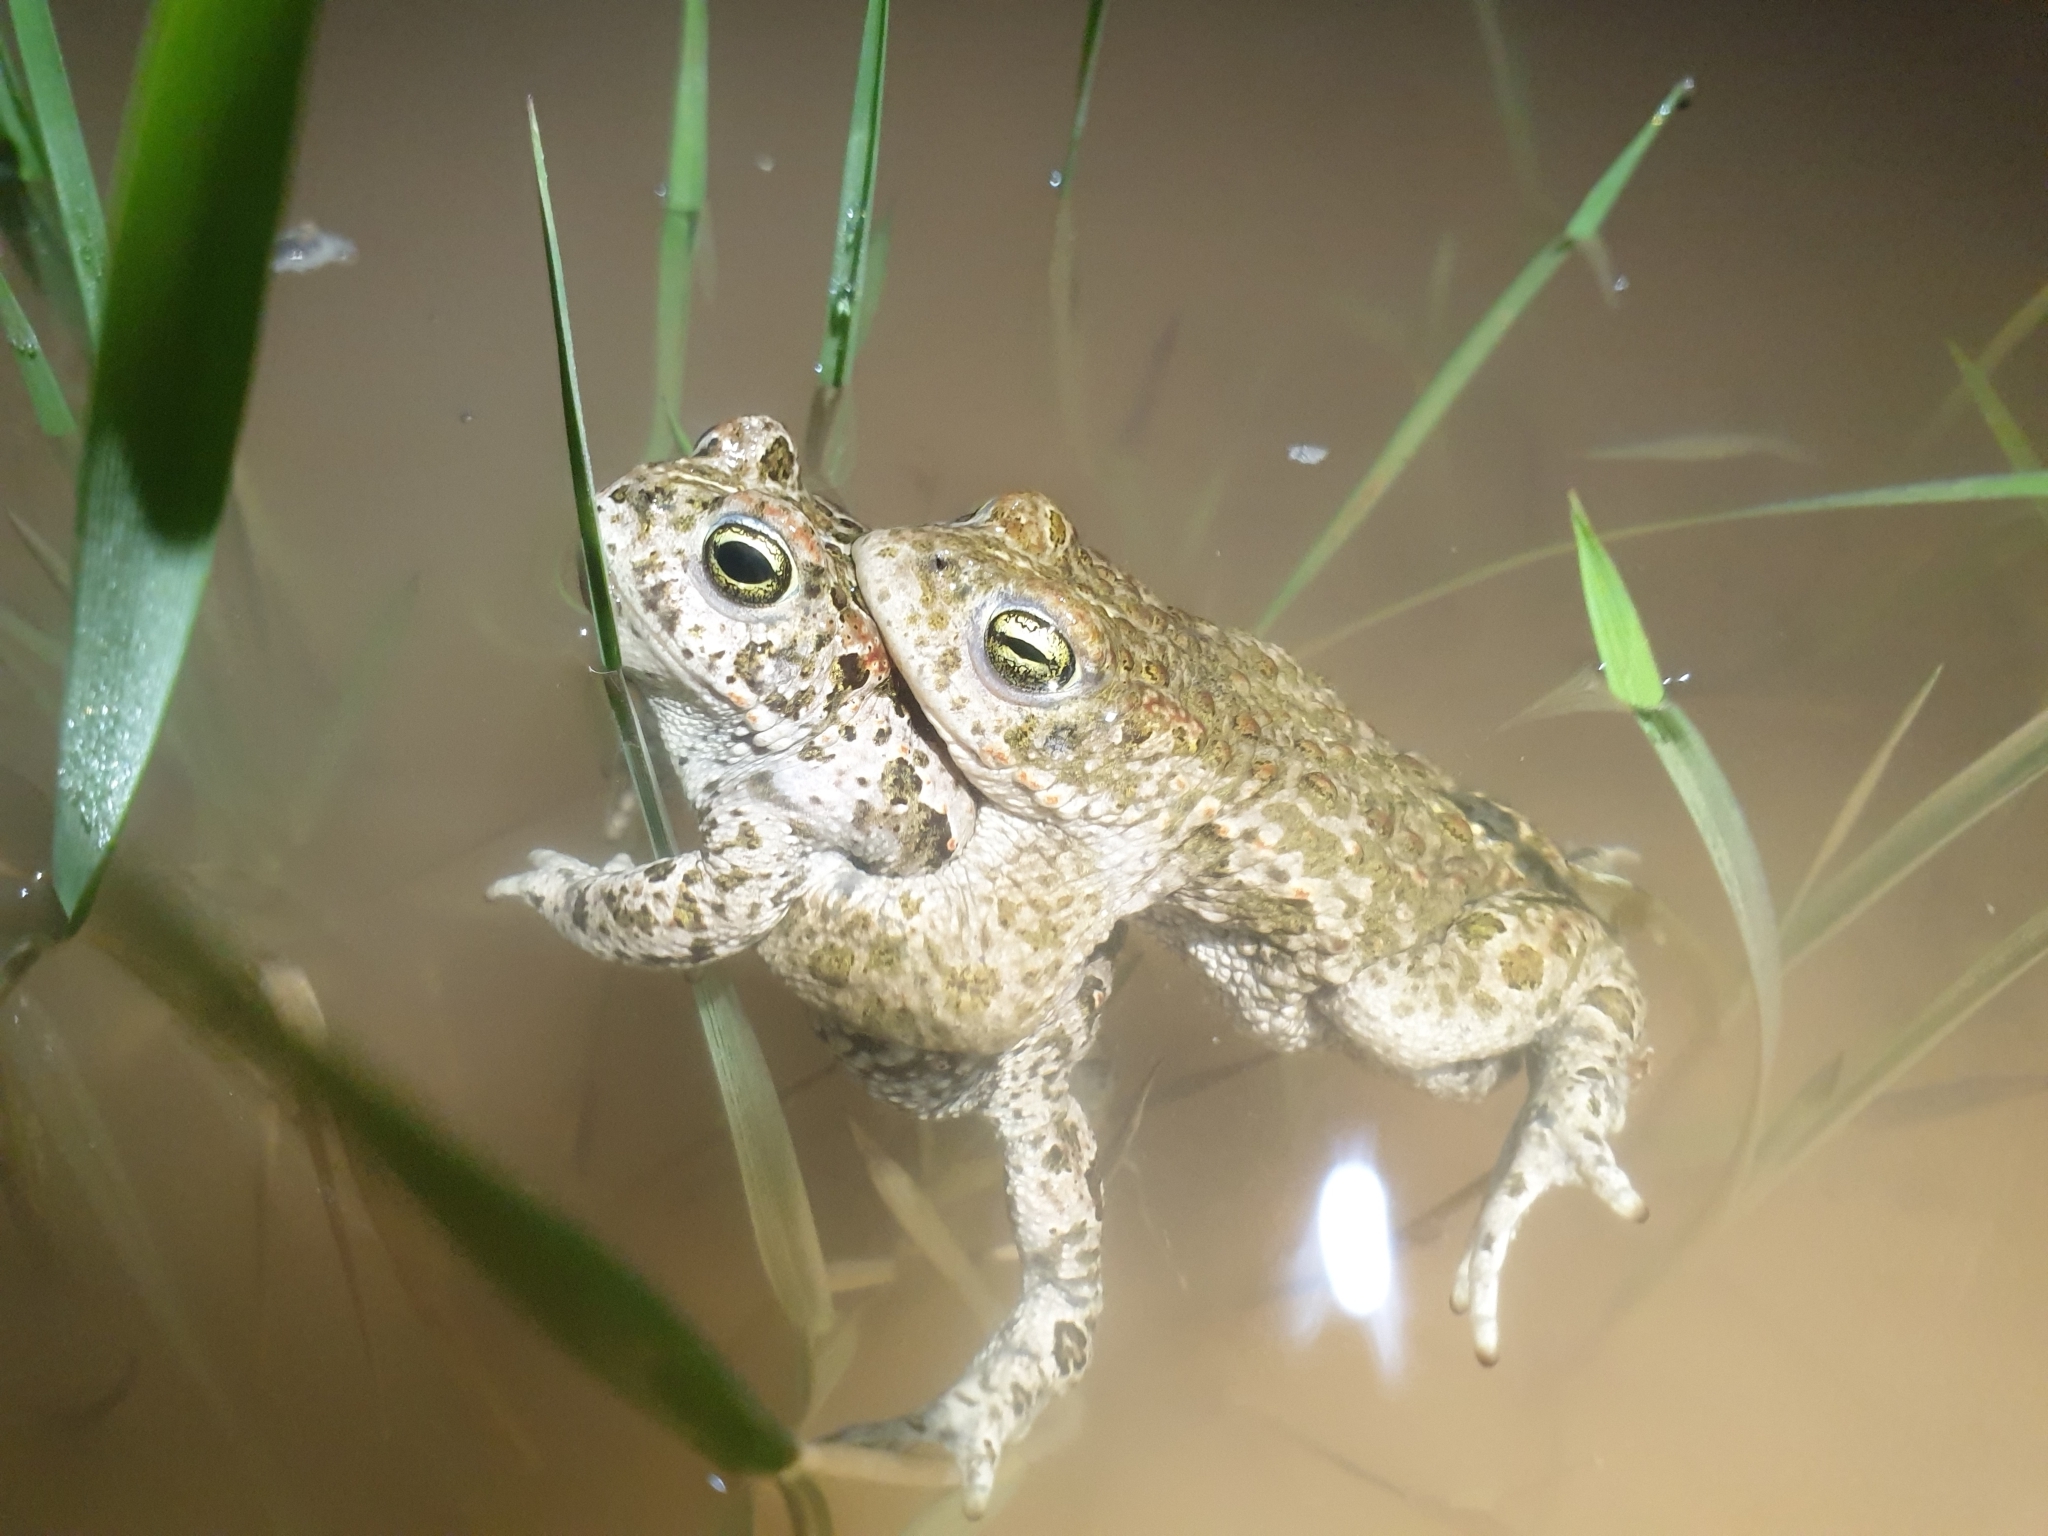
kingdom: Animalia
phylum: Chordata
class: Amphibia
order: Anura
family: Bufonidae
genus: Epidalea
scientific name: Epidalea calamita
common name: Natterjack toad
